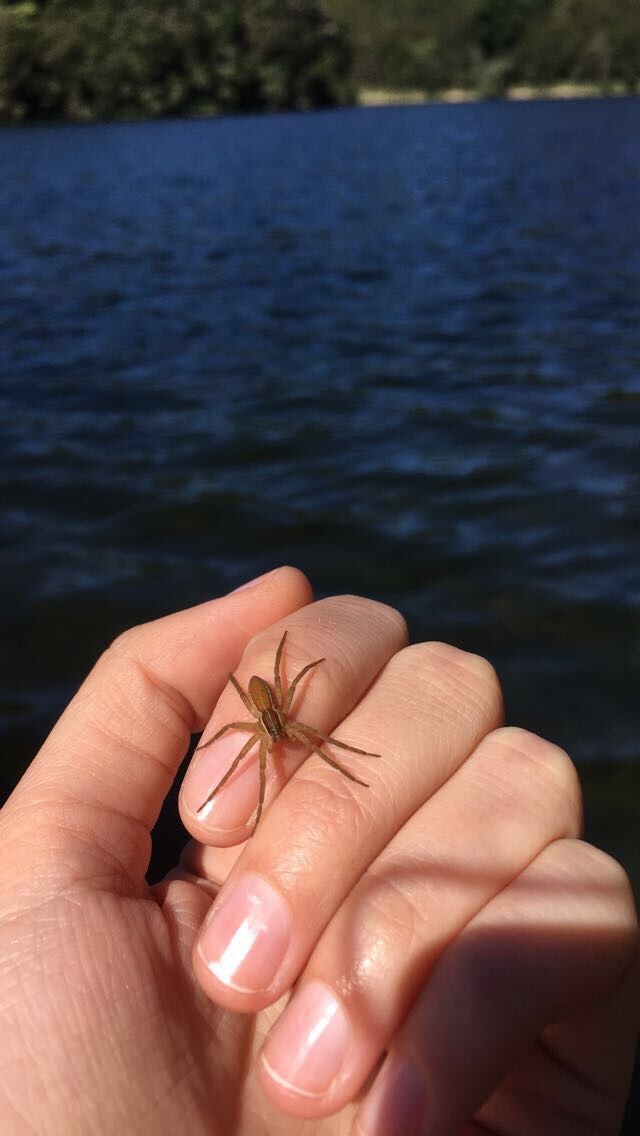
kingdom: Animalia
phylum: Arthropoda
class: Arachnida
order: Araneae
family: Pisauridae
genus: Dolomedes
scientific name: Dolomedes minor
